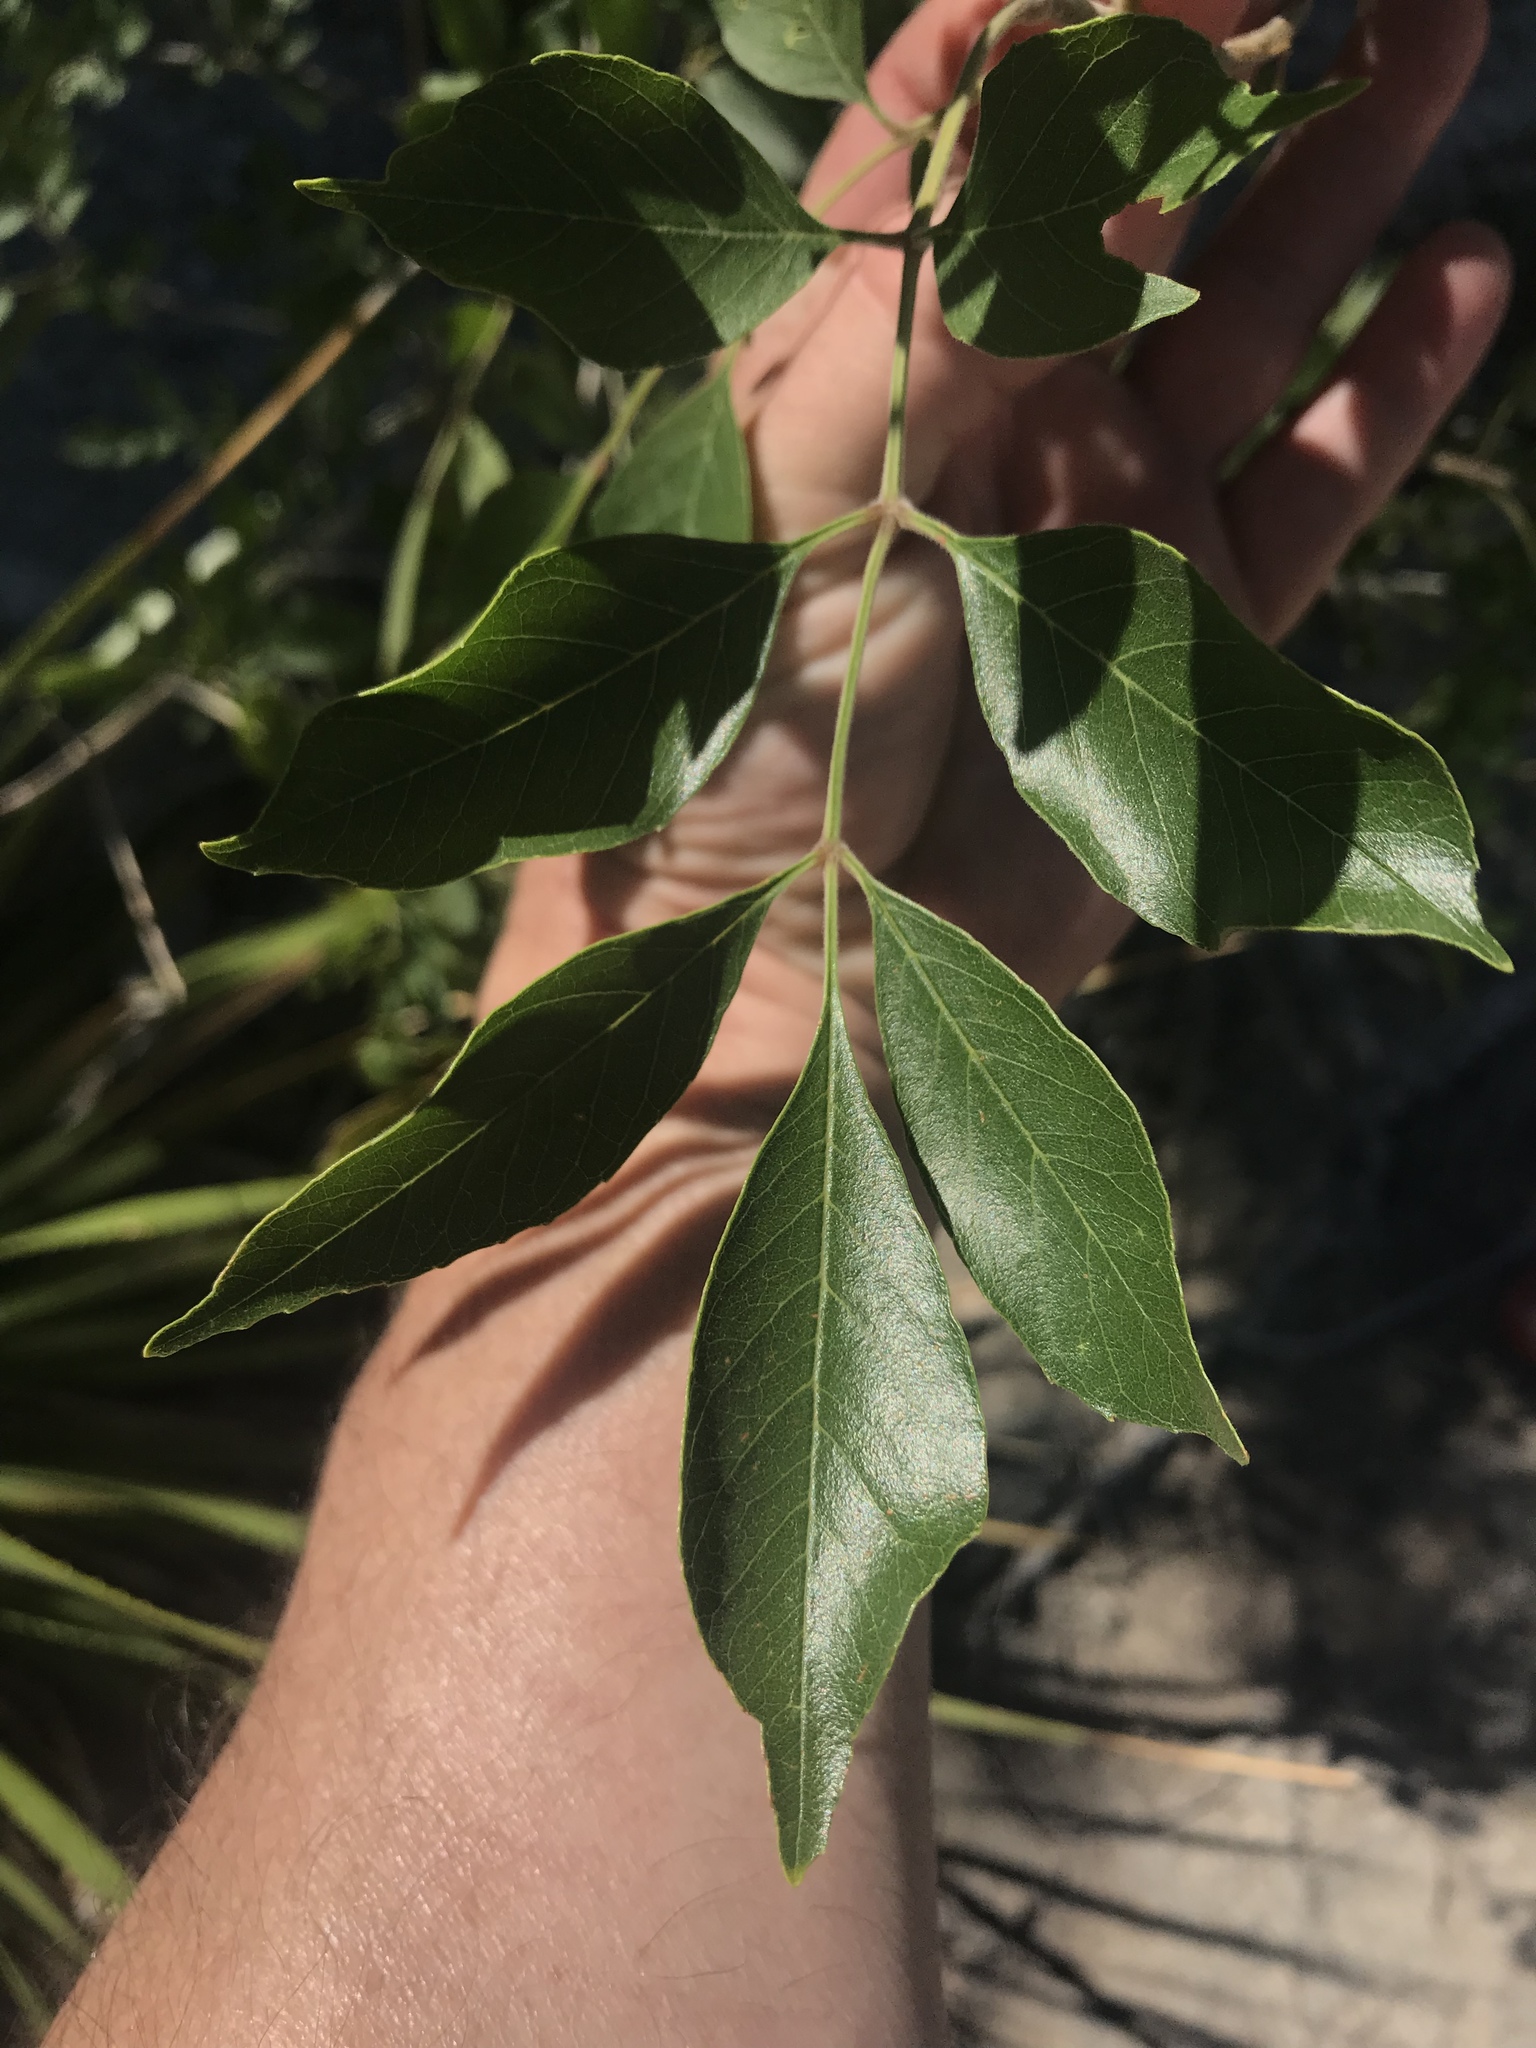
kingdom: Plantae
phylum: Tracheophyta
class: Magnoliopsida
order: Lamiales
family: Oleaceae
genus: Fraxinus
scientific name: Fraxinus velutina
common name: Arizon ash
